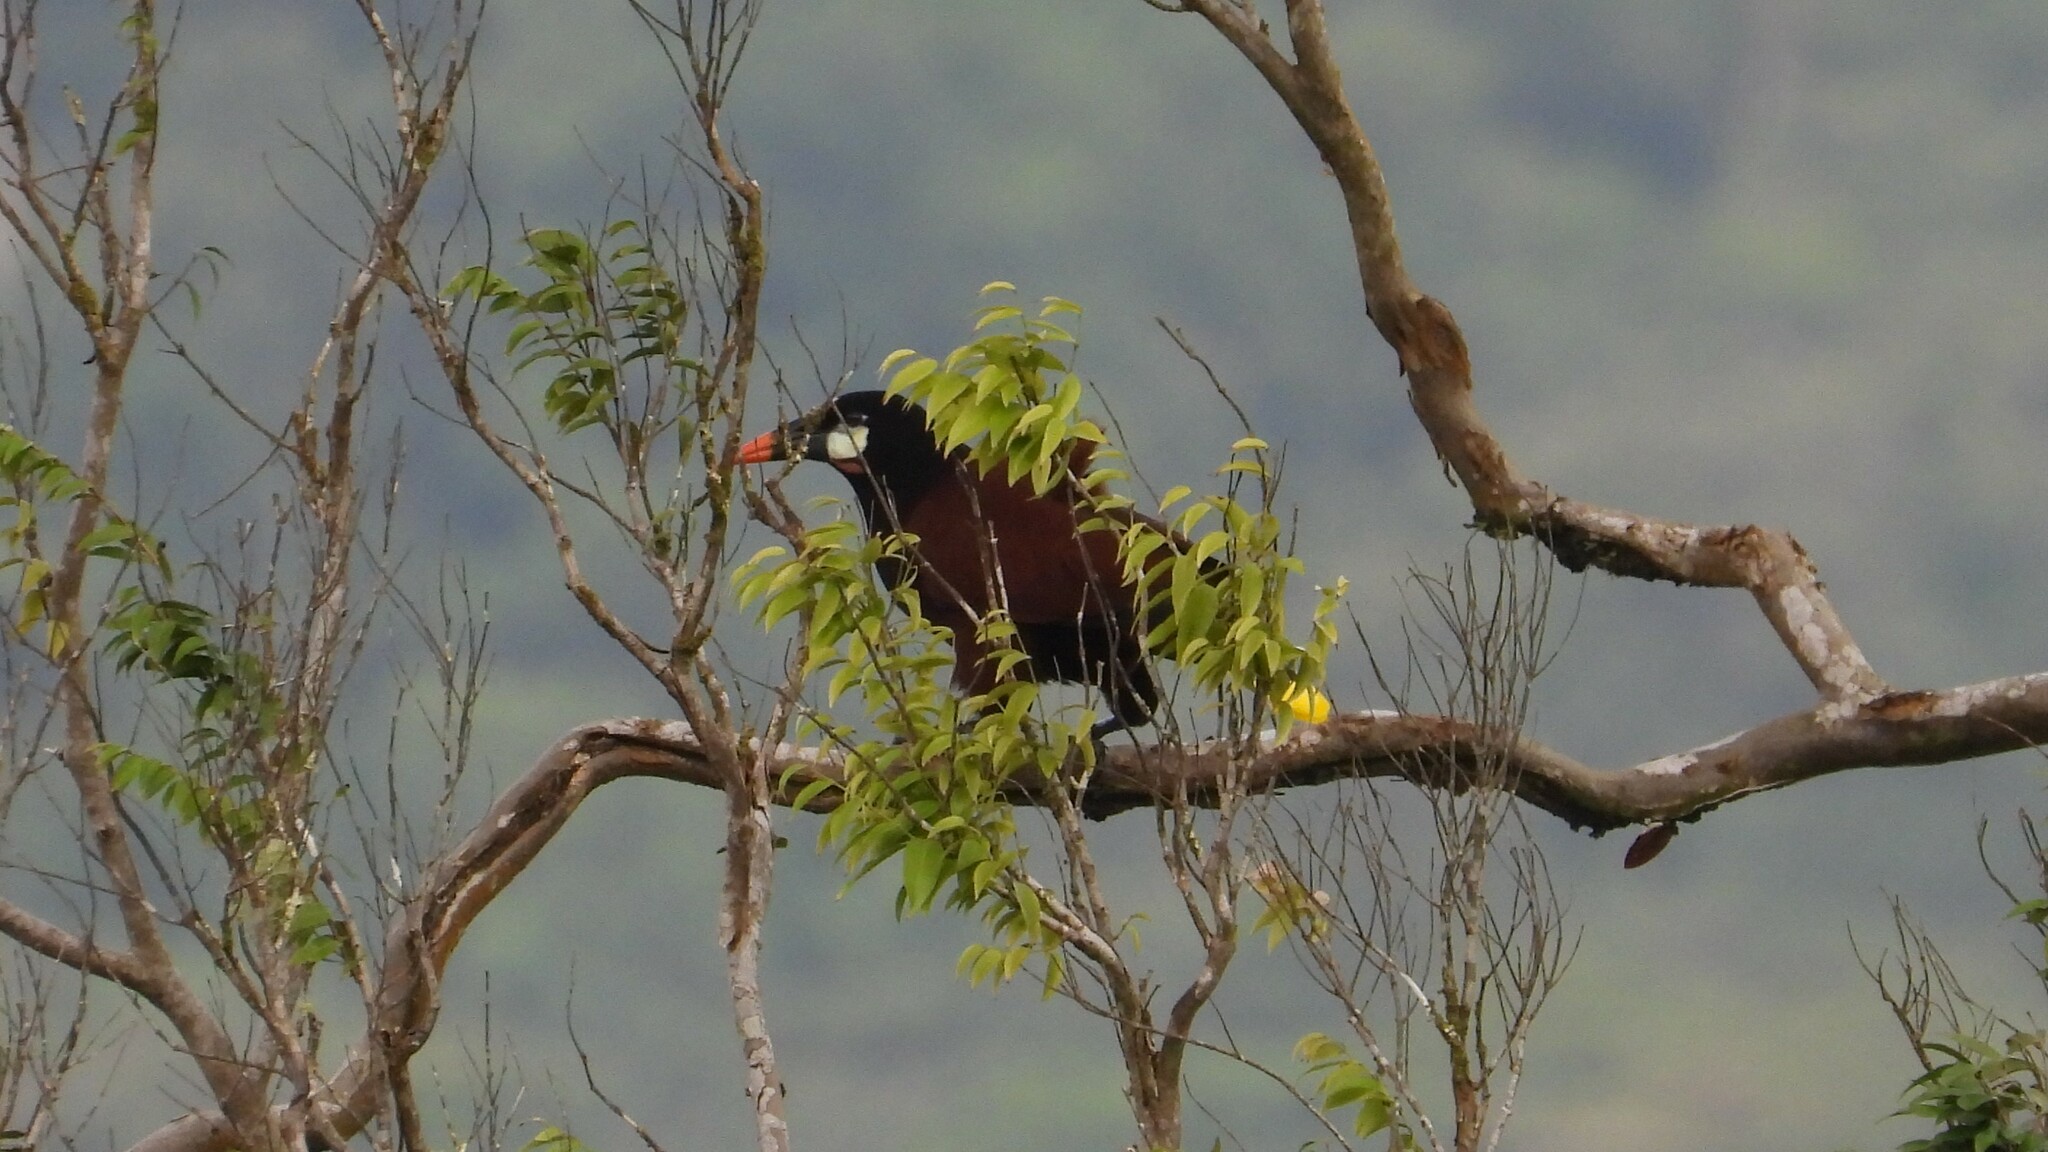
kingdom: Animalia
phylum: Chordata
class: Aves
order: Passeriformes
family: Icteridae
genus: Psarocolius
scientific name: Psarocolius montezuma
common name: Montezuma oropendola
